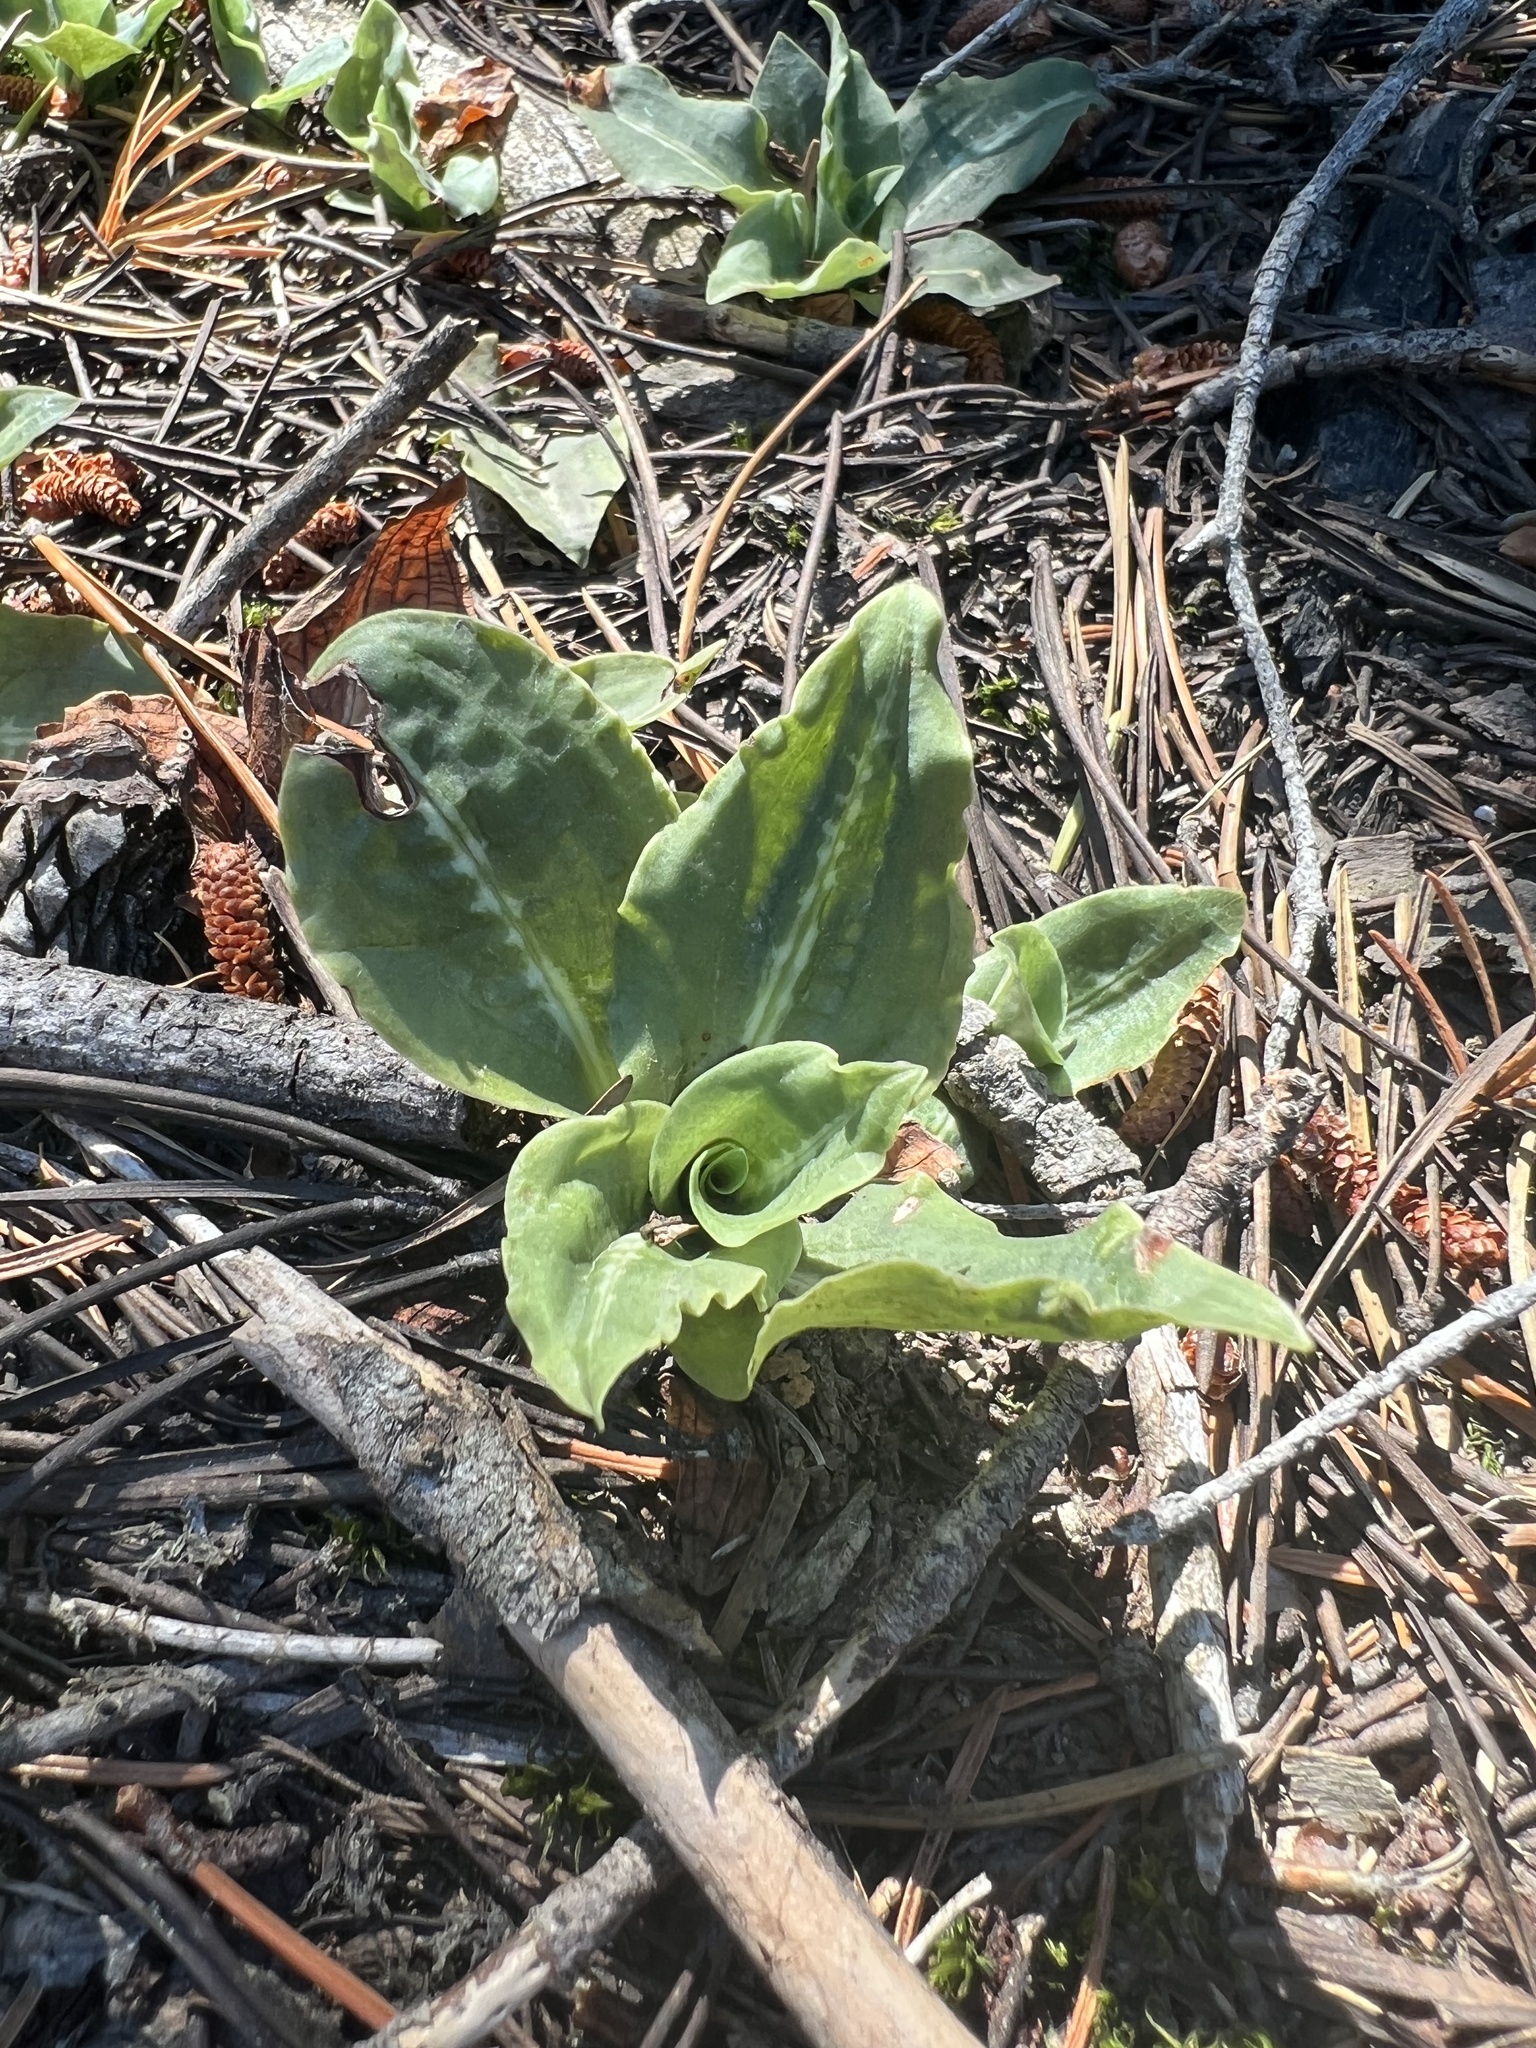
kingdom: Plantae
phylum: Tracheophyta
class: Liliopsida
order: Asparagales
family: Orchidaceae
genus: Goodyera
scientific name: Goodyera oblongifolia
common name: Giant rattlesnake-plantain
